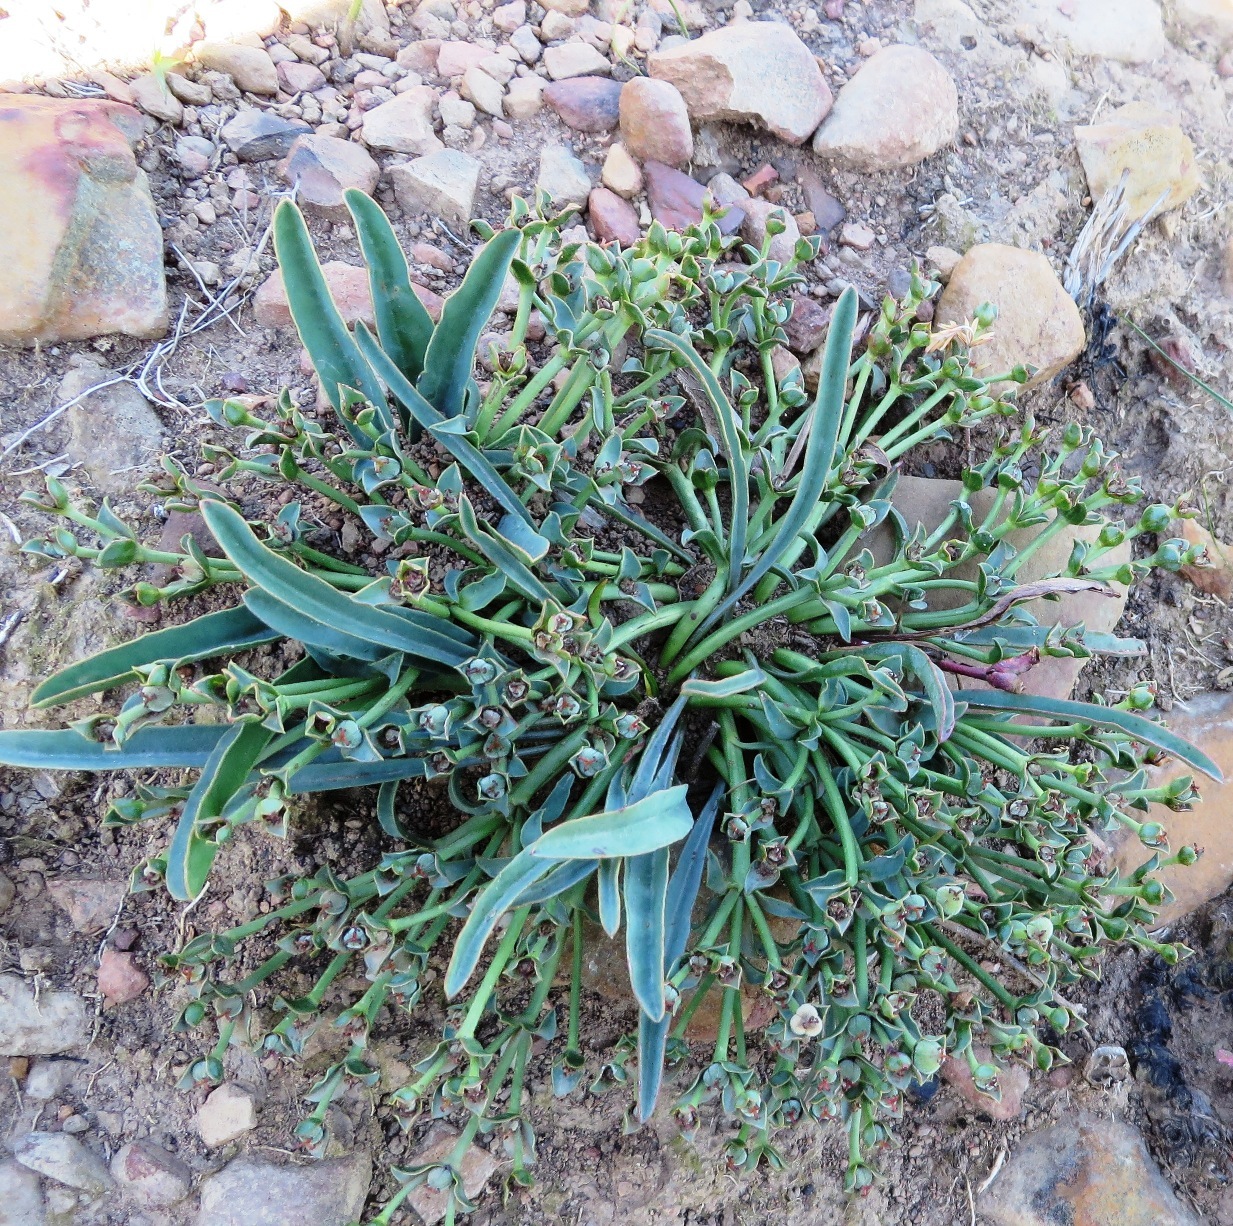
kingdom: Plantae
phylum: Tracheophyta
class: Magnoliopsida
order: Malpighiales
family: Euphorbiaceae
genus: Euphorbia
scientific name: Euphorbia silenifolia
